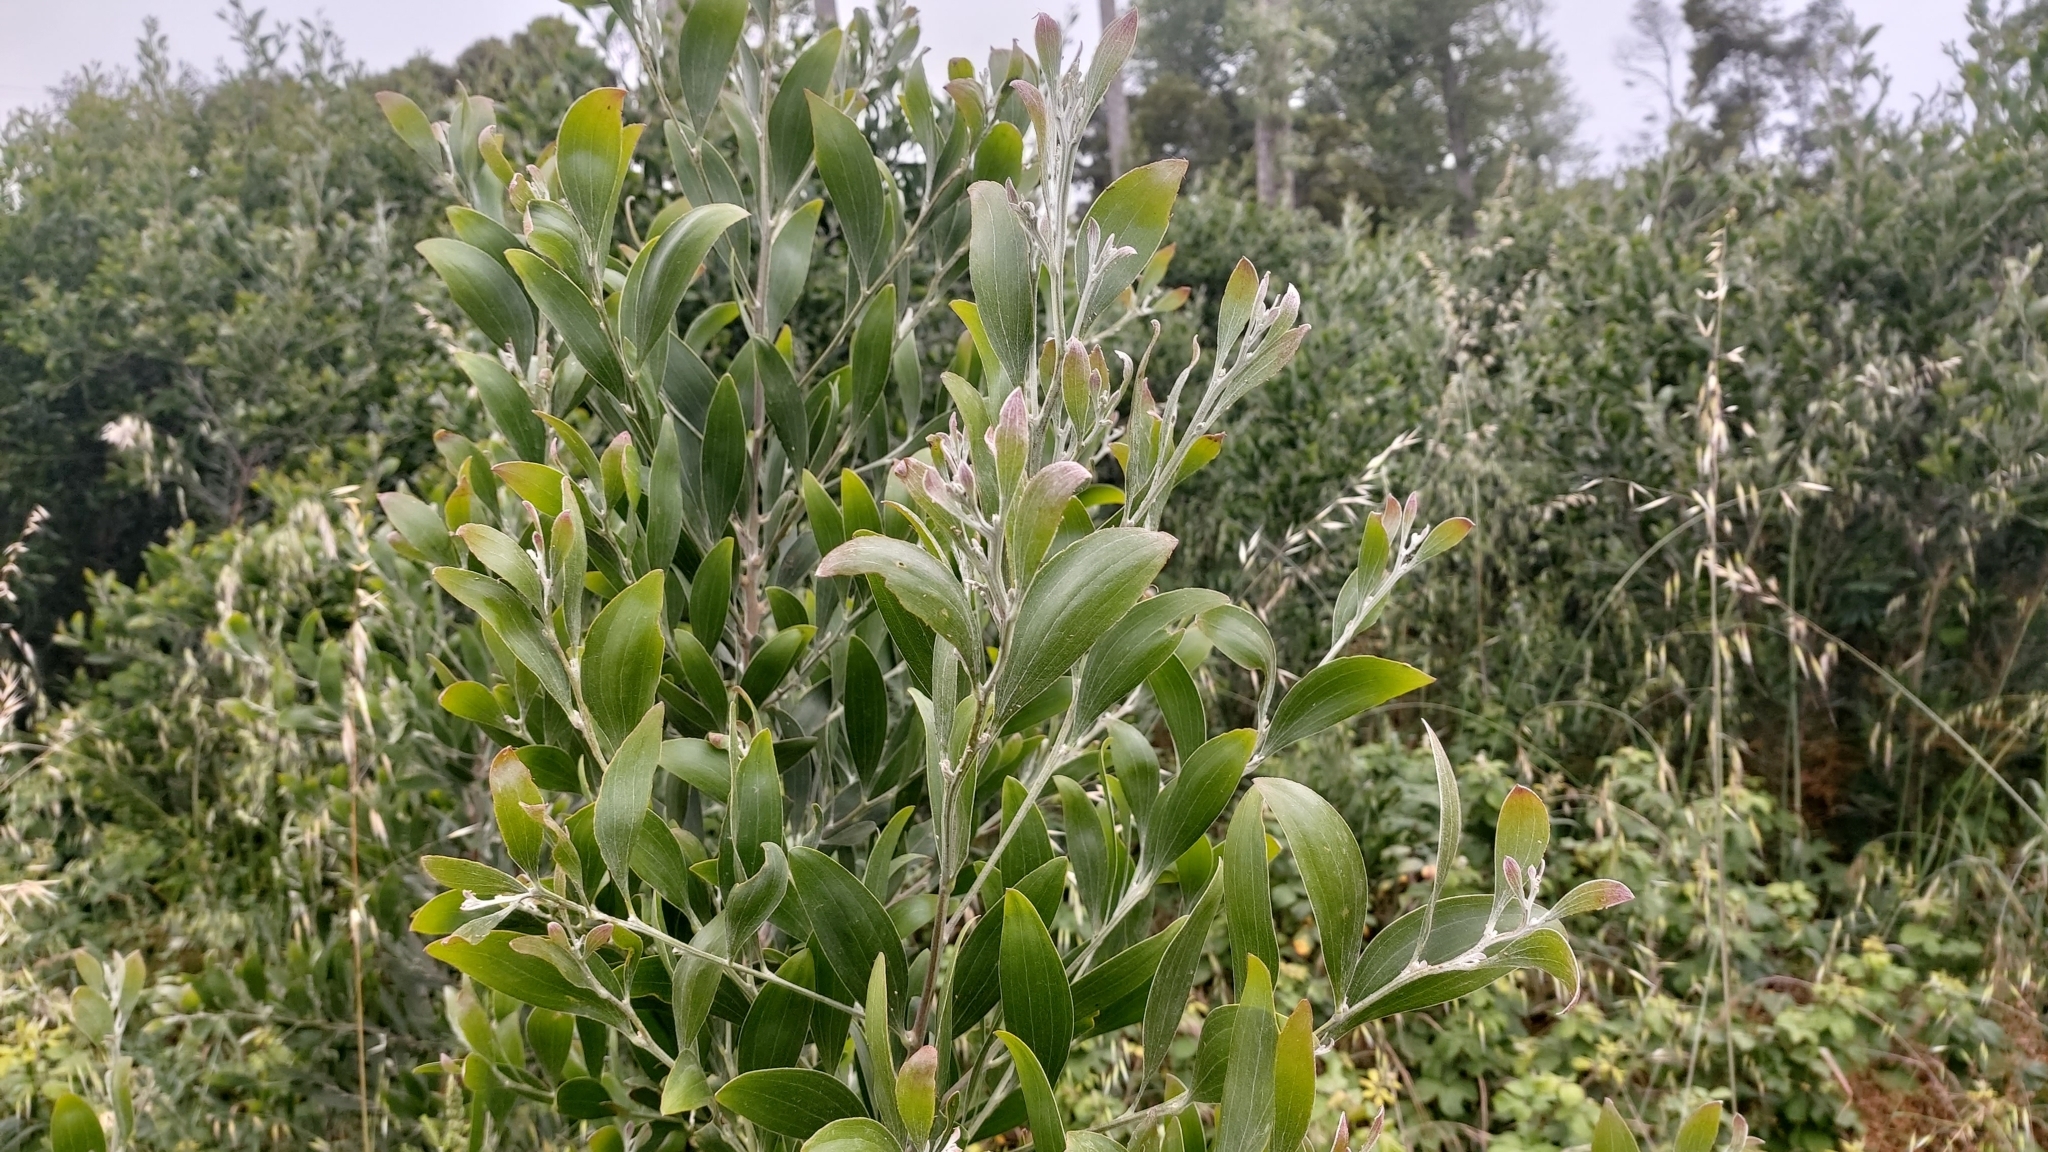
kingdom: Plantae
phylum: Tracheophyta
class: Magnoliopsida
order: Fabales
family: Fabaceae
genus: Acacia
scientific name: Acacia melanoxylon
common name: Blackwood
